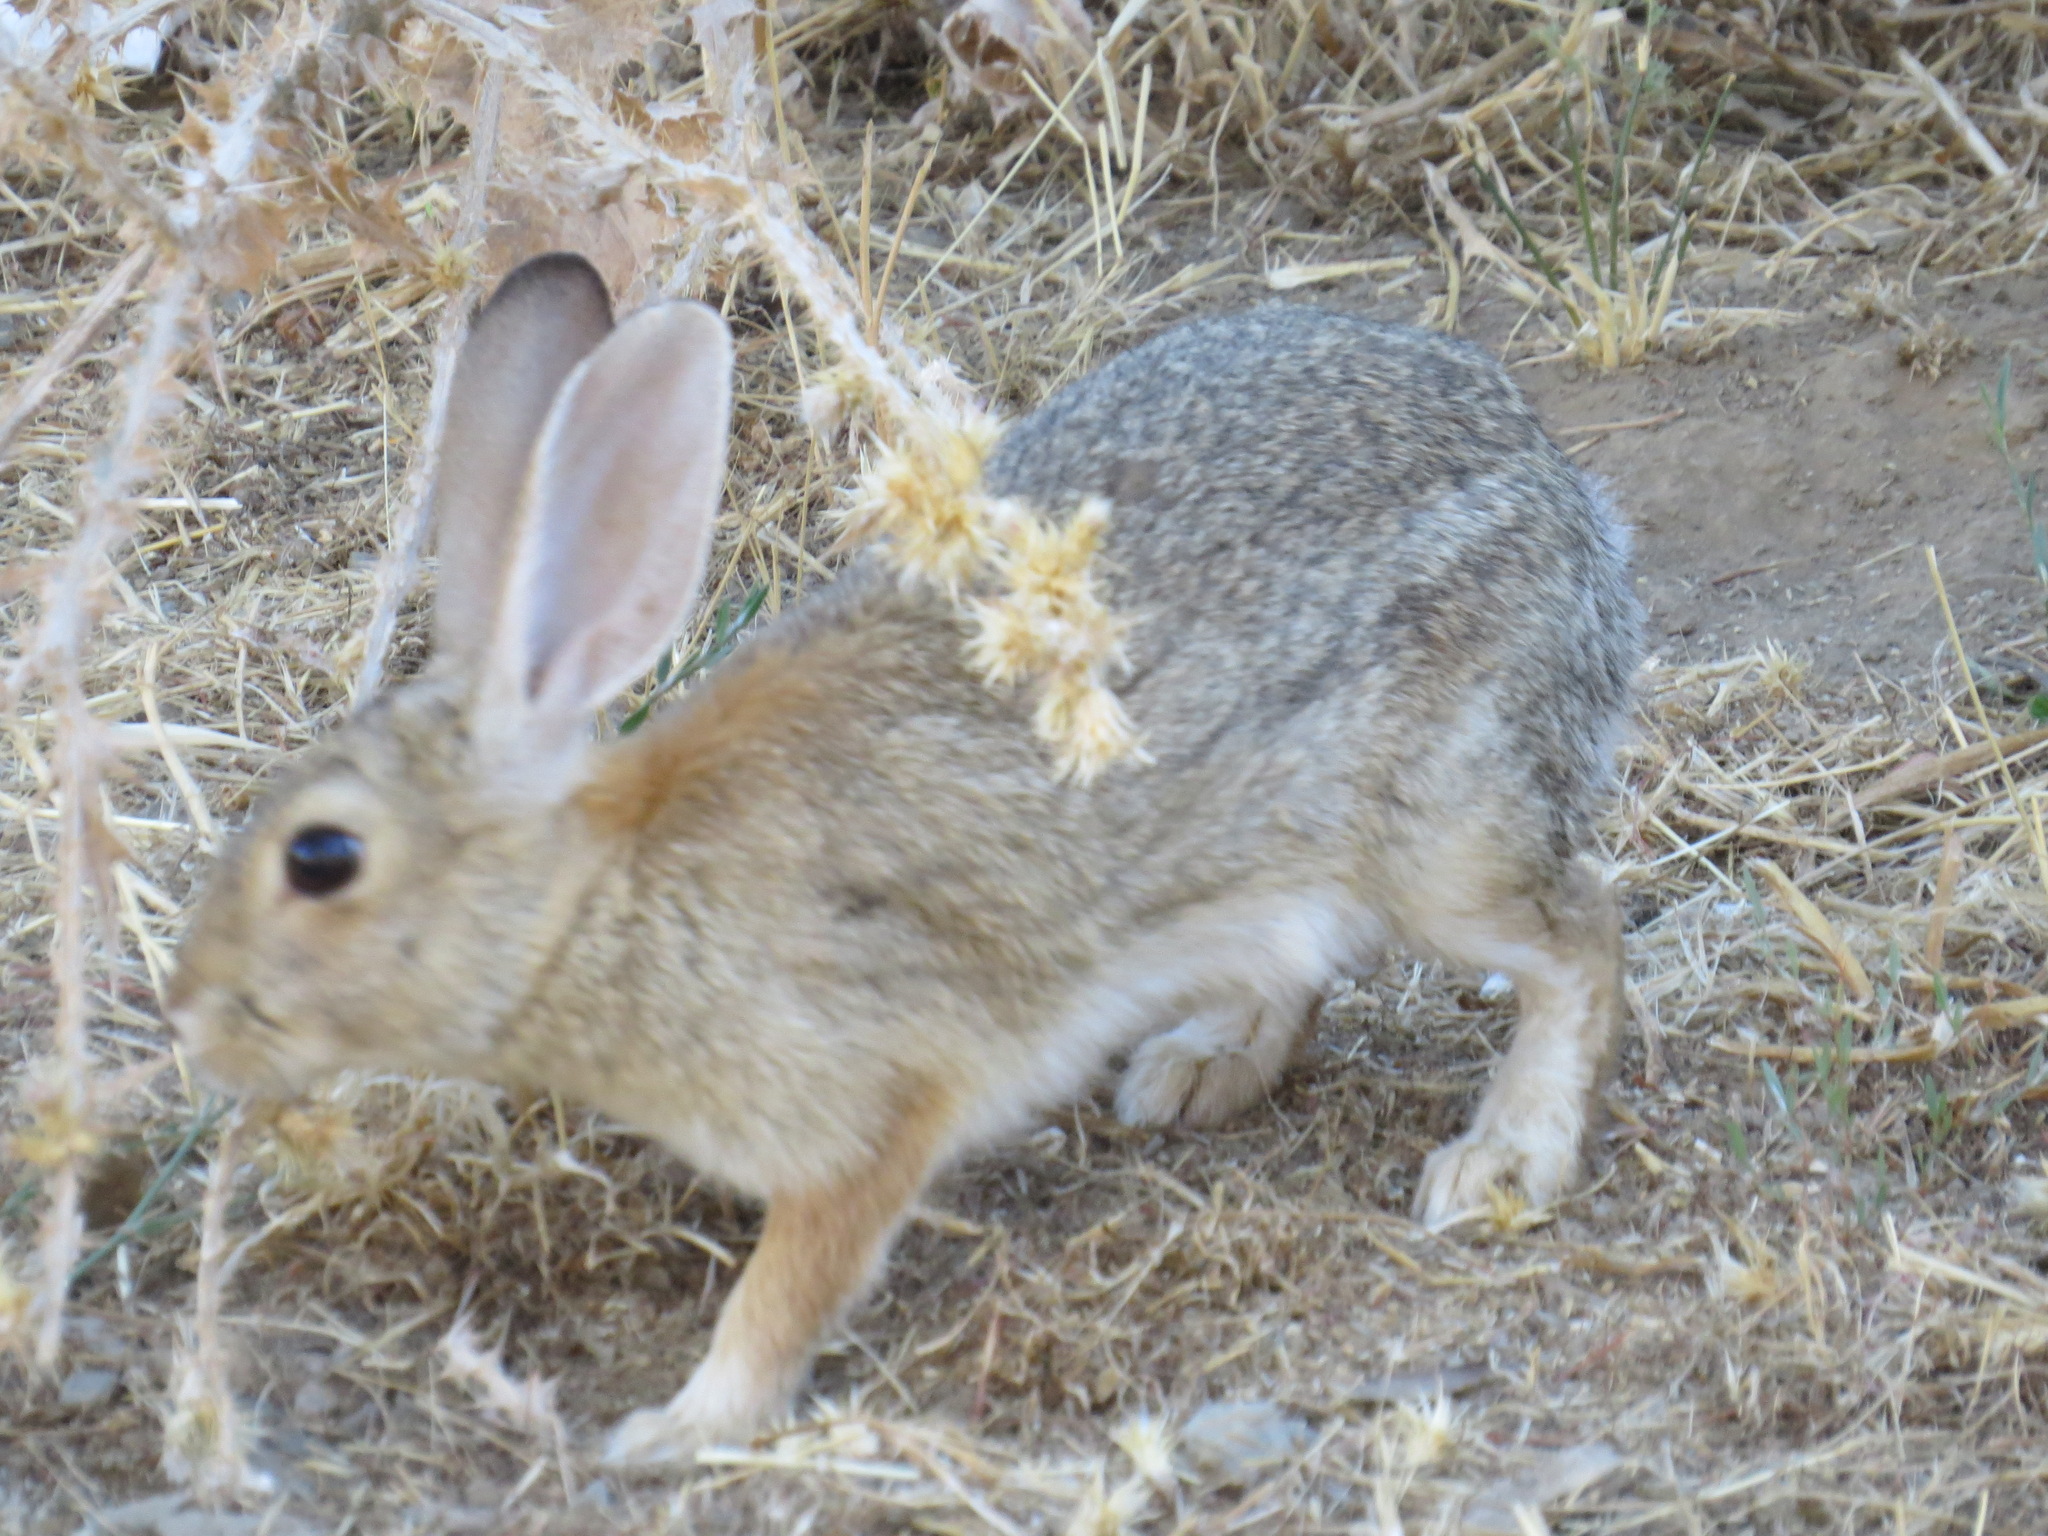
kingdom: Animalia
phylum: Chordata
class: Mammalia
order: Lagomorpha
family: Leporidae
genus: Sylvilagus
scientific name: Sylvilagus audubonii
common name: Desert cottontail
